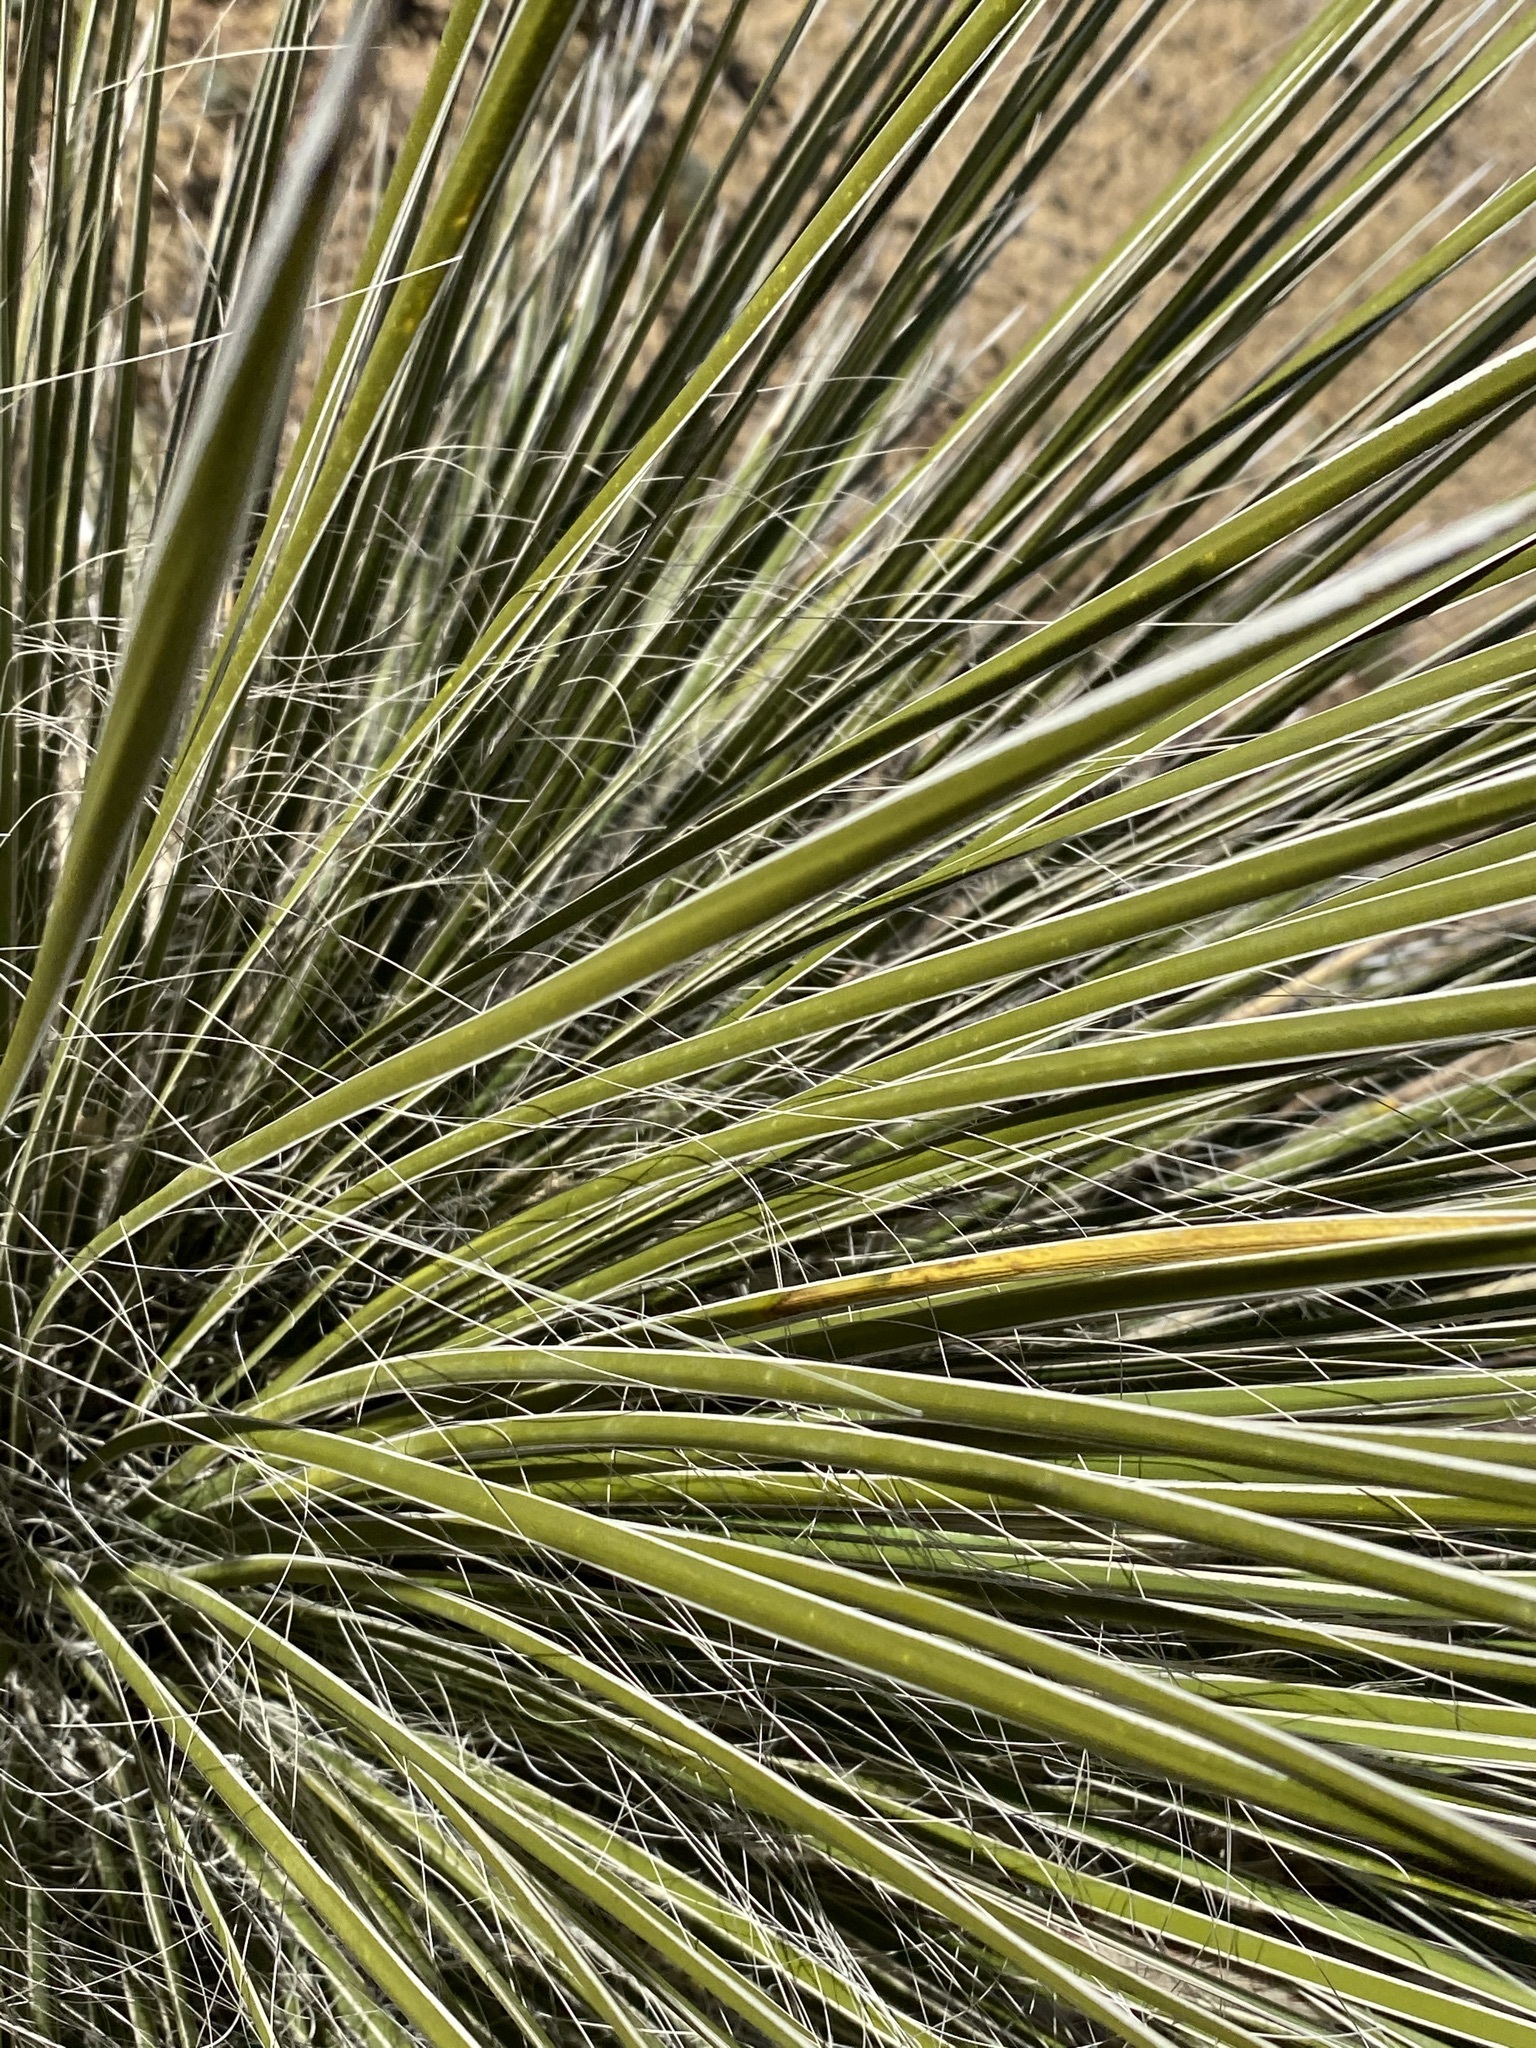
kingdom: Plantae
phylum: Tracheophyta
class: Liliopsida
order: Asparagales
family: Asparagaceae
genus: Yucca
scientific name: Yucca elata
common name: Palmella
